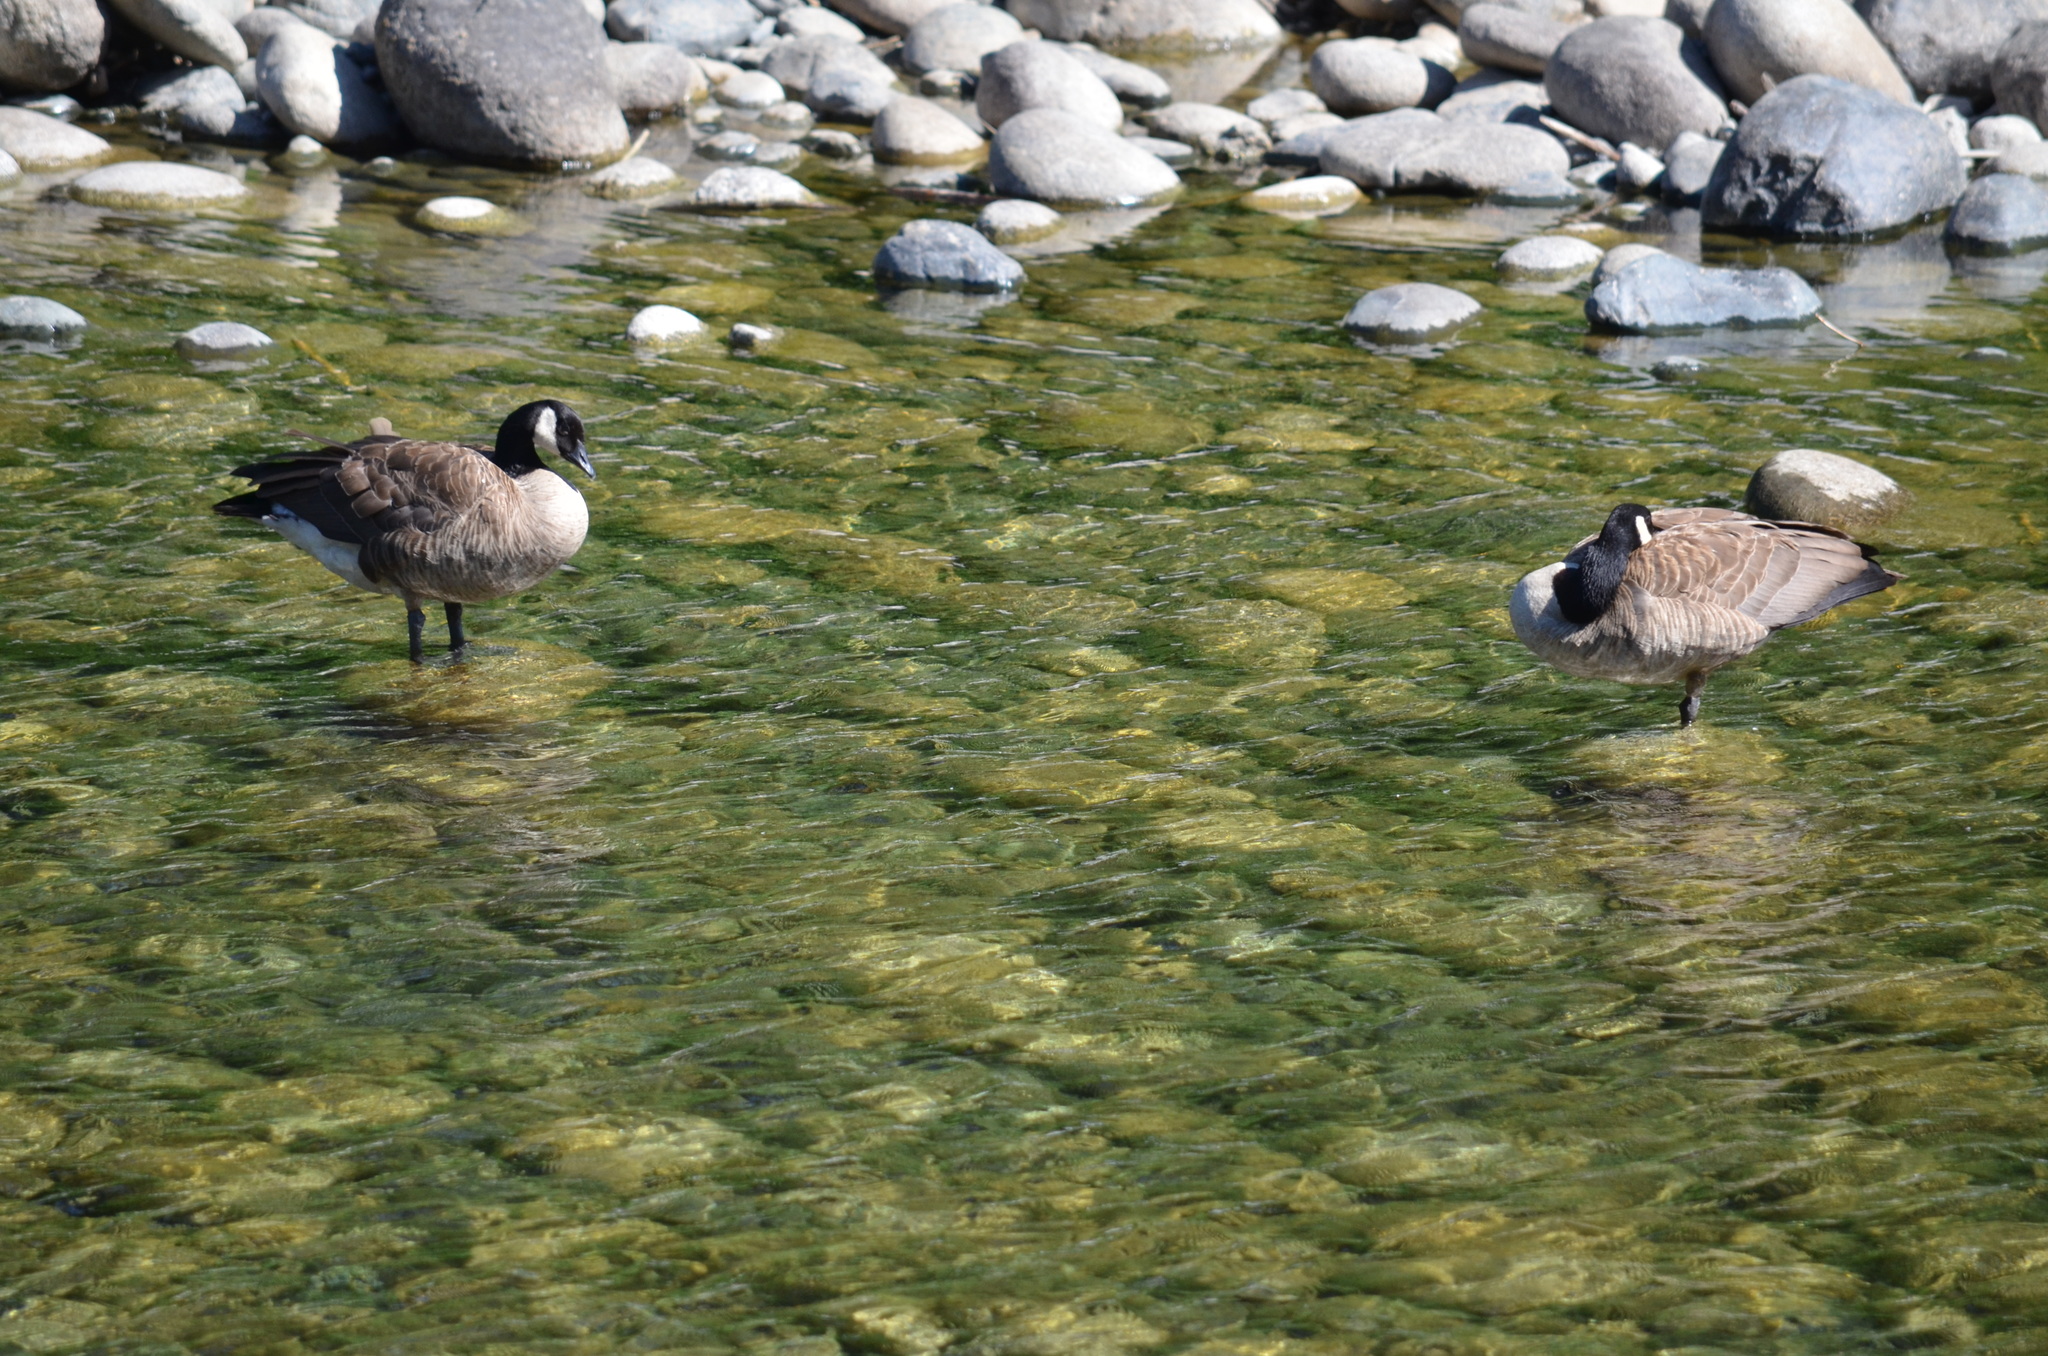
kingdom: Animalia
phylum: Chordata
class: Aves
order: Anseriformes
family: Anatidae
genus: Branta
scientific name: Branta canadensis
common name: Canada goose
